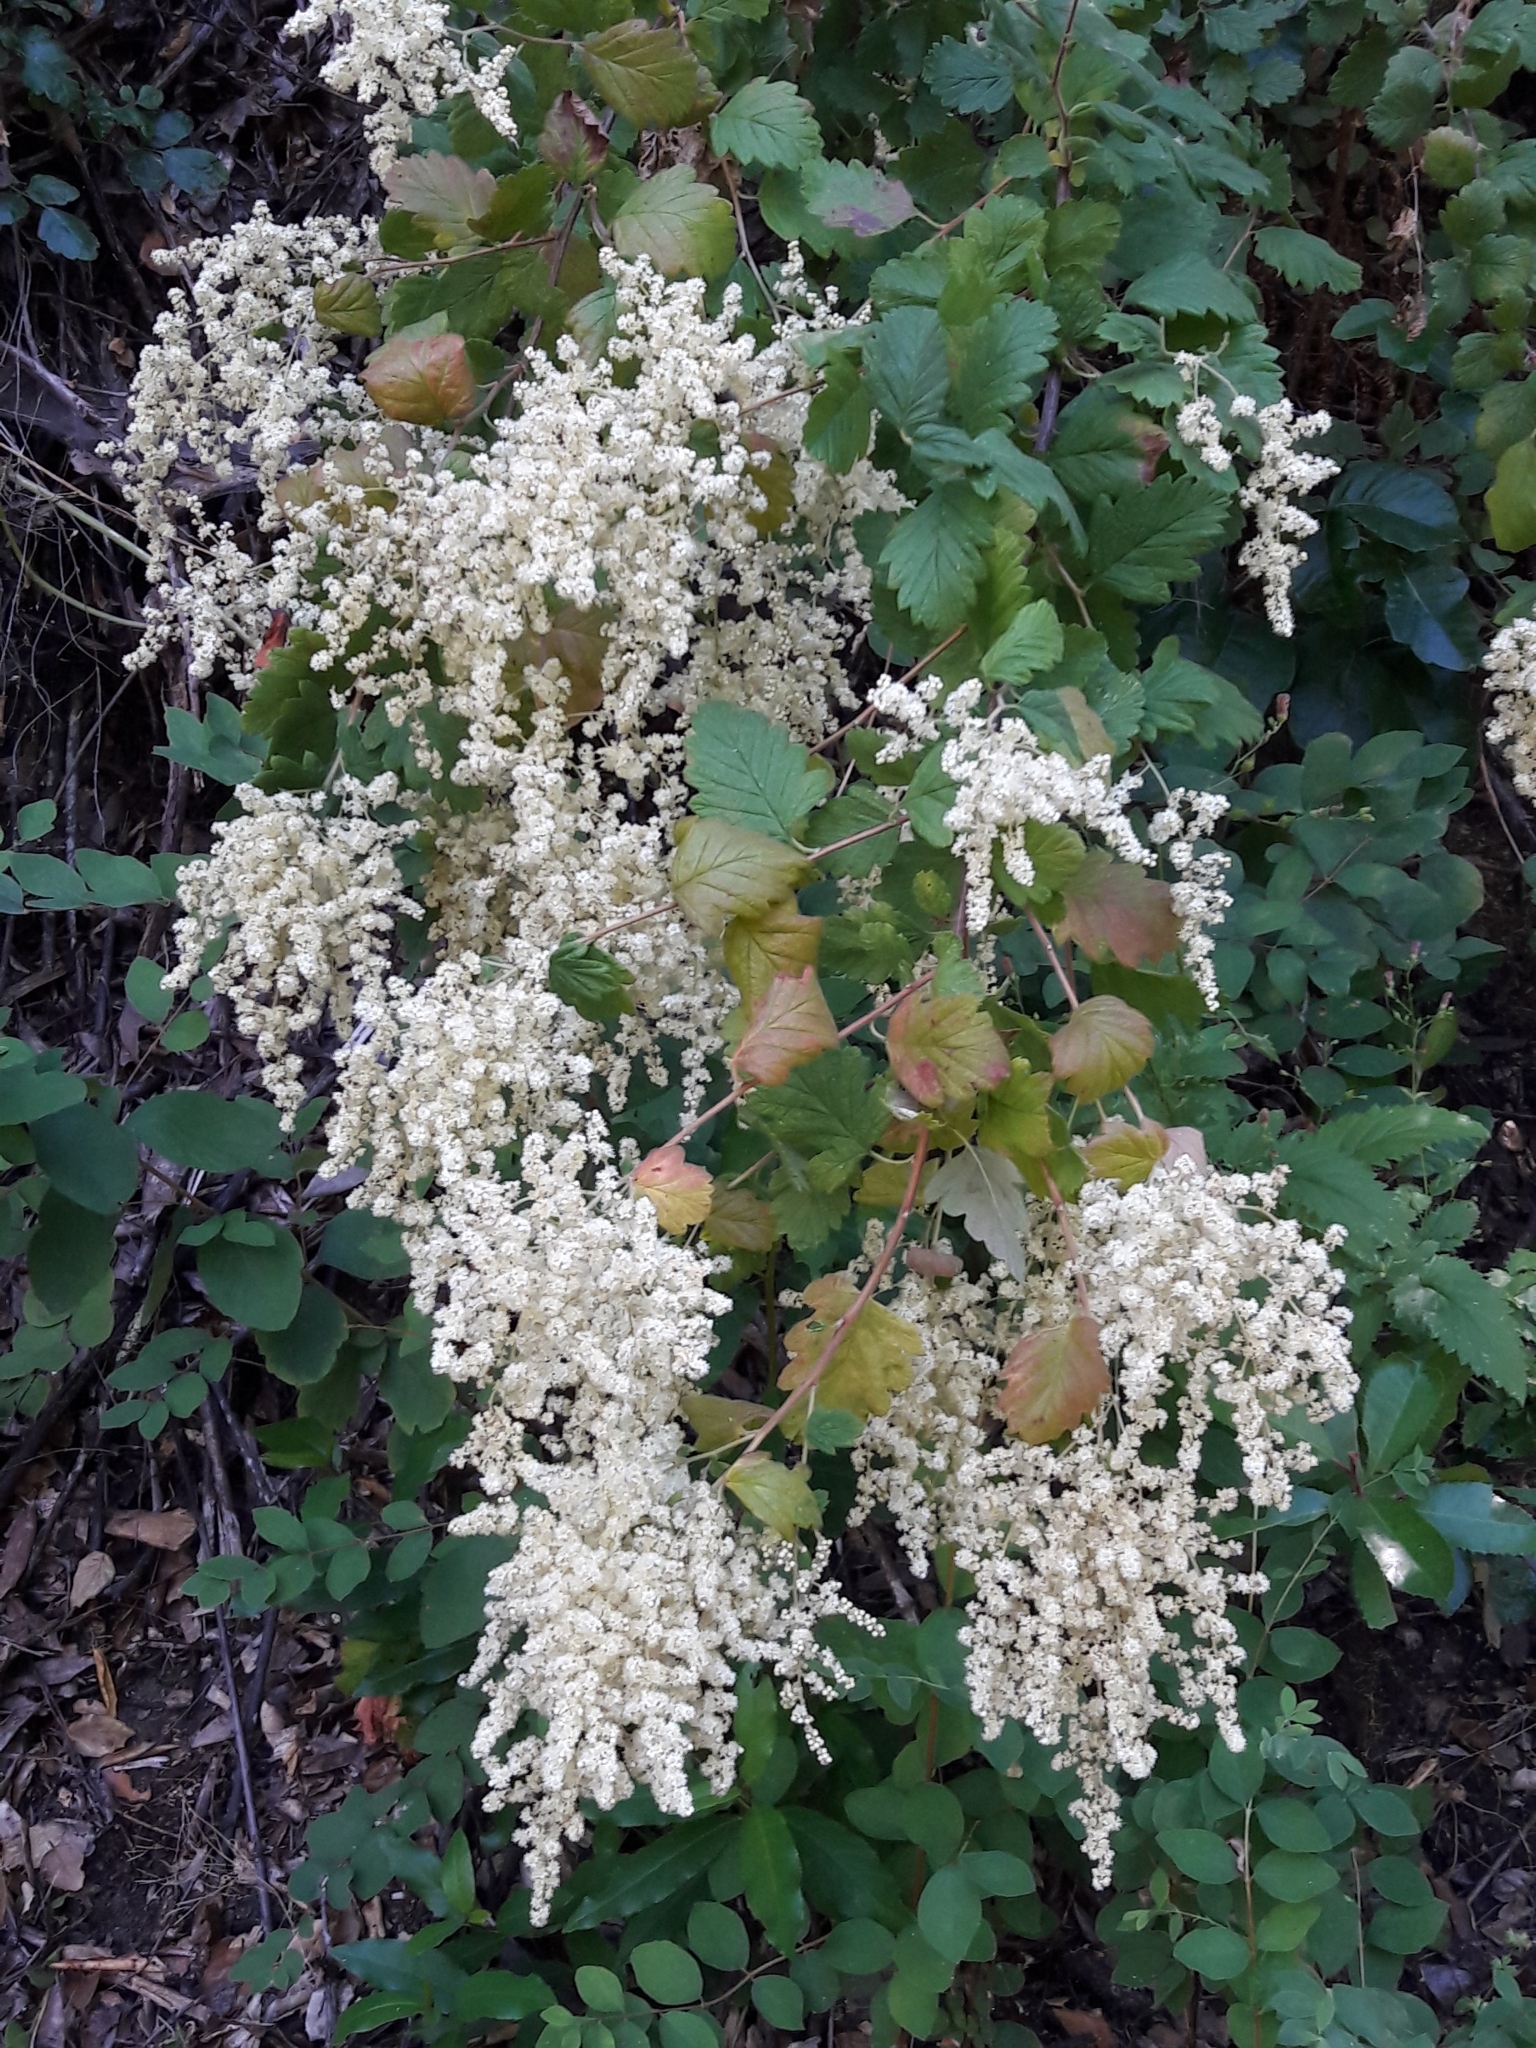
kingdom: Plantae
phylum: Tracheophyta
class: Magnoliopsida
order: Rosales
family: Rosaceae
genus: Holodiscus
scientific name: Holodiscus discolor
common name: Oceanspray
